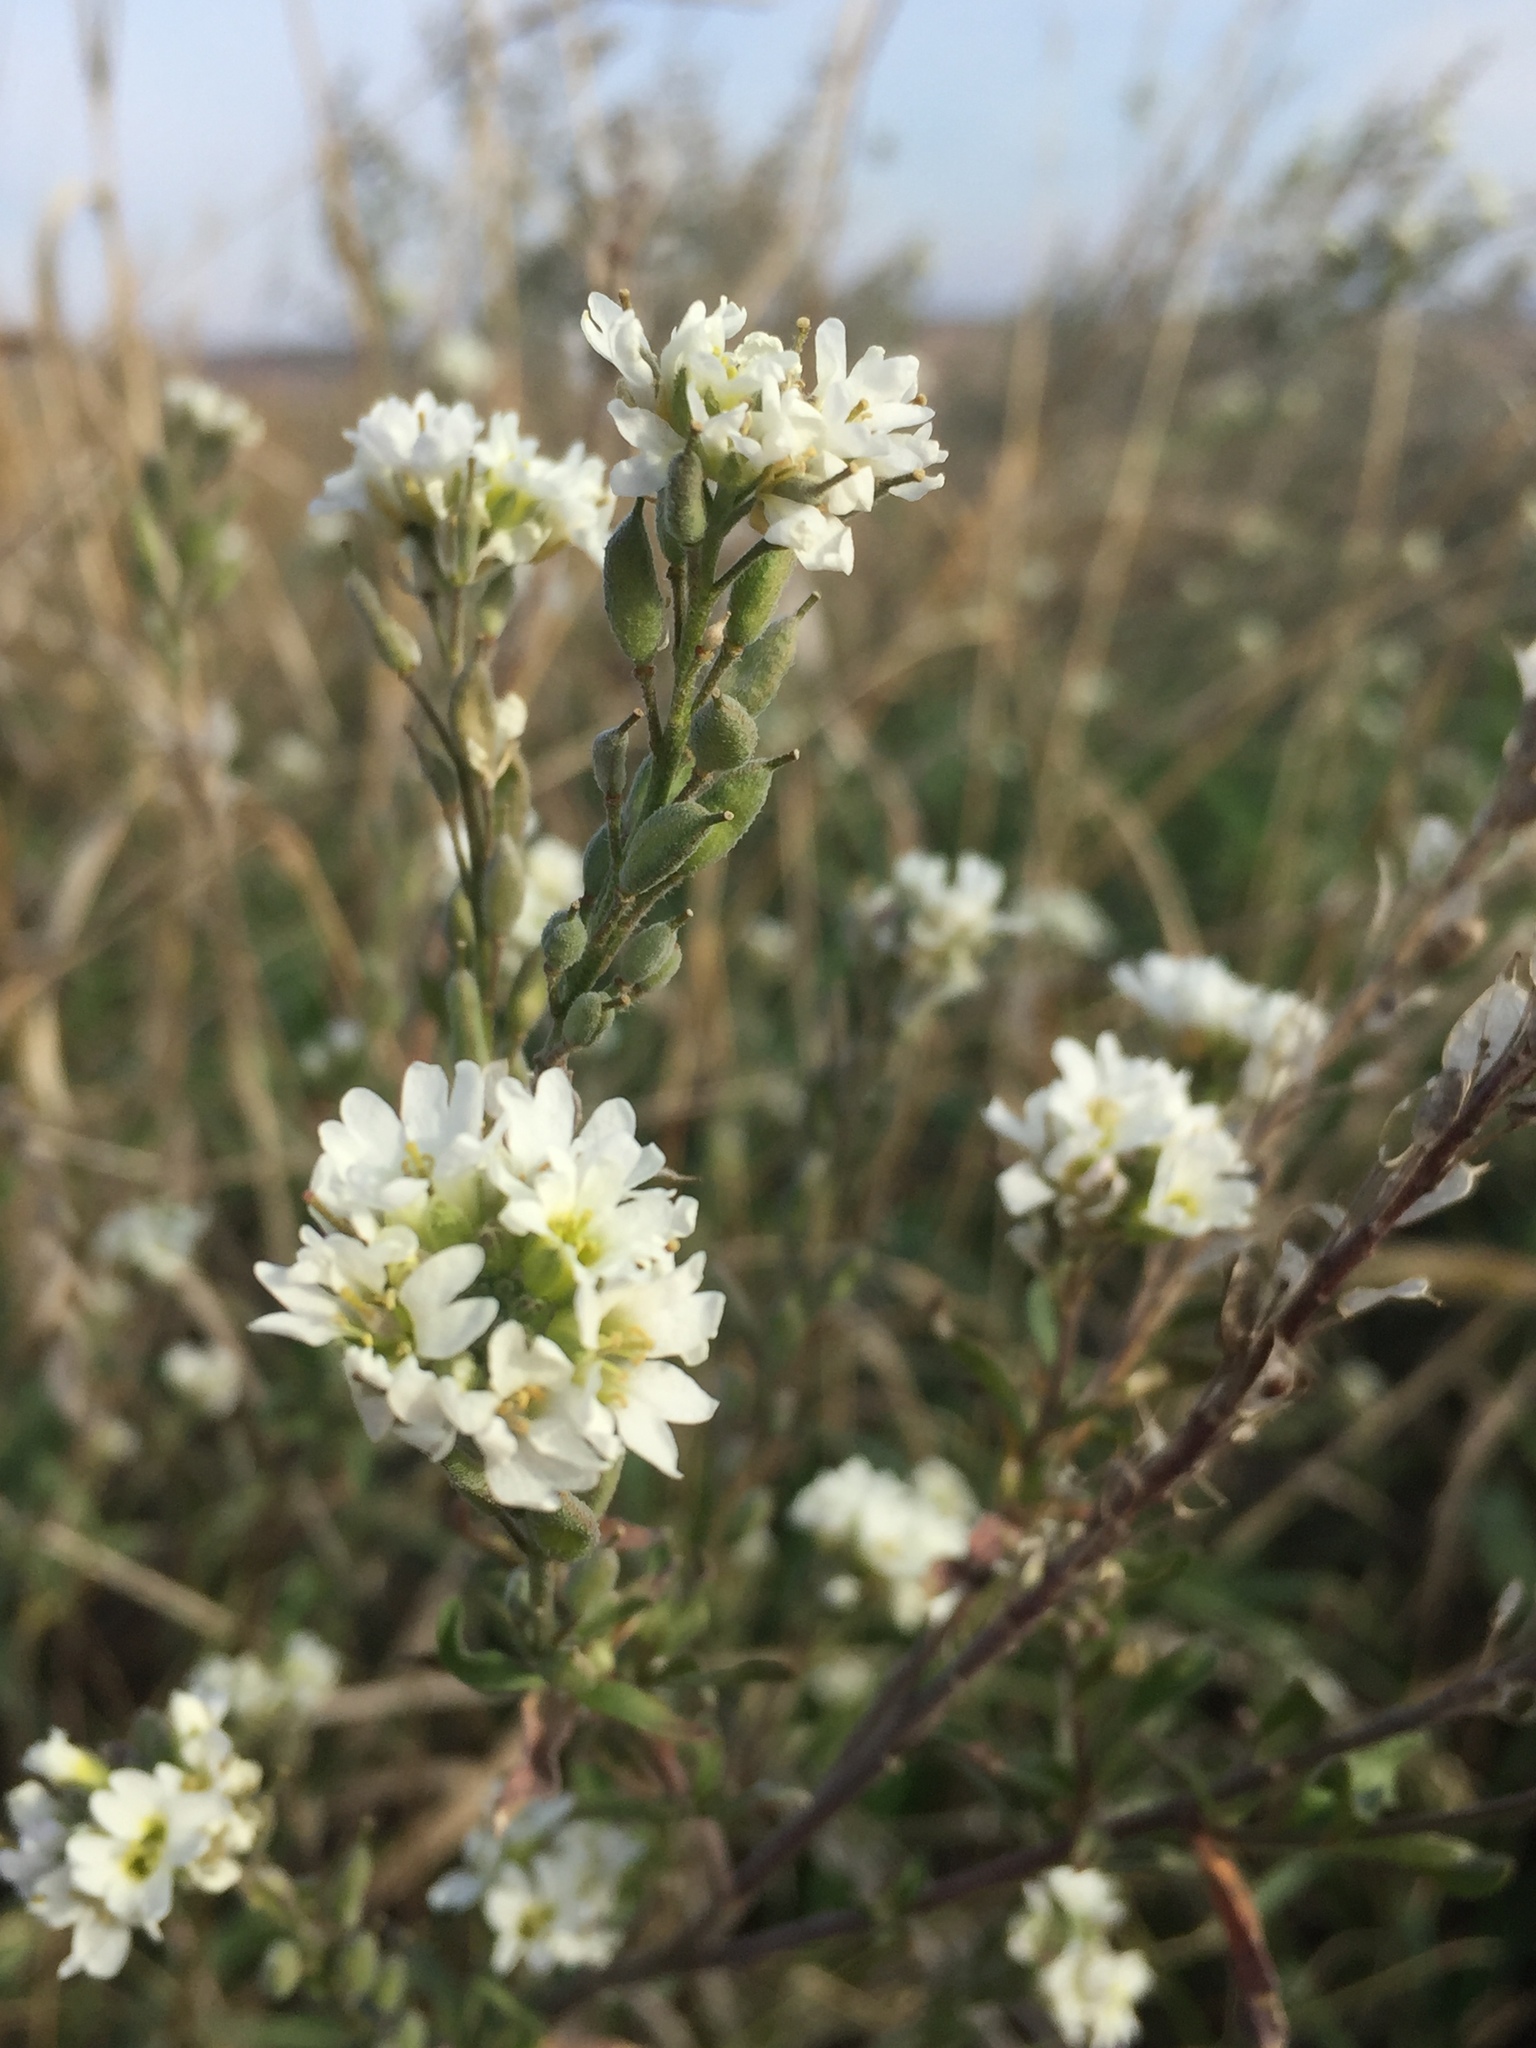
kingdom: Plantae
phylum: Tracheophyta
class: Magnoliopsida
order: Brassicales
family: Brassicaceae
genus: Berteroa
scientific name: Berteroa incana
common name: Hoary alison
